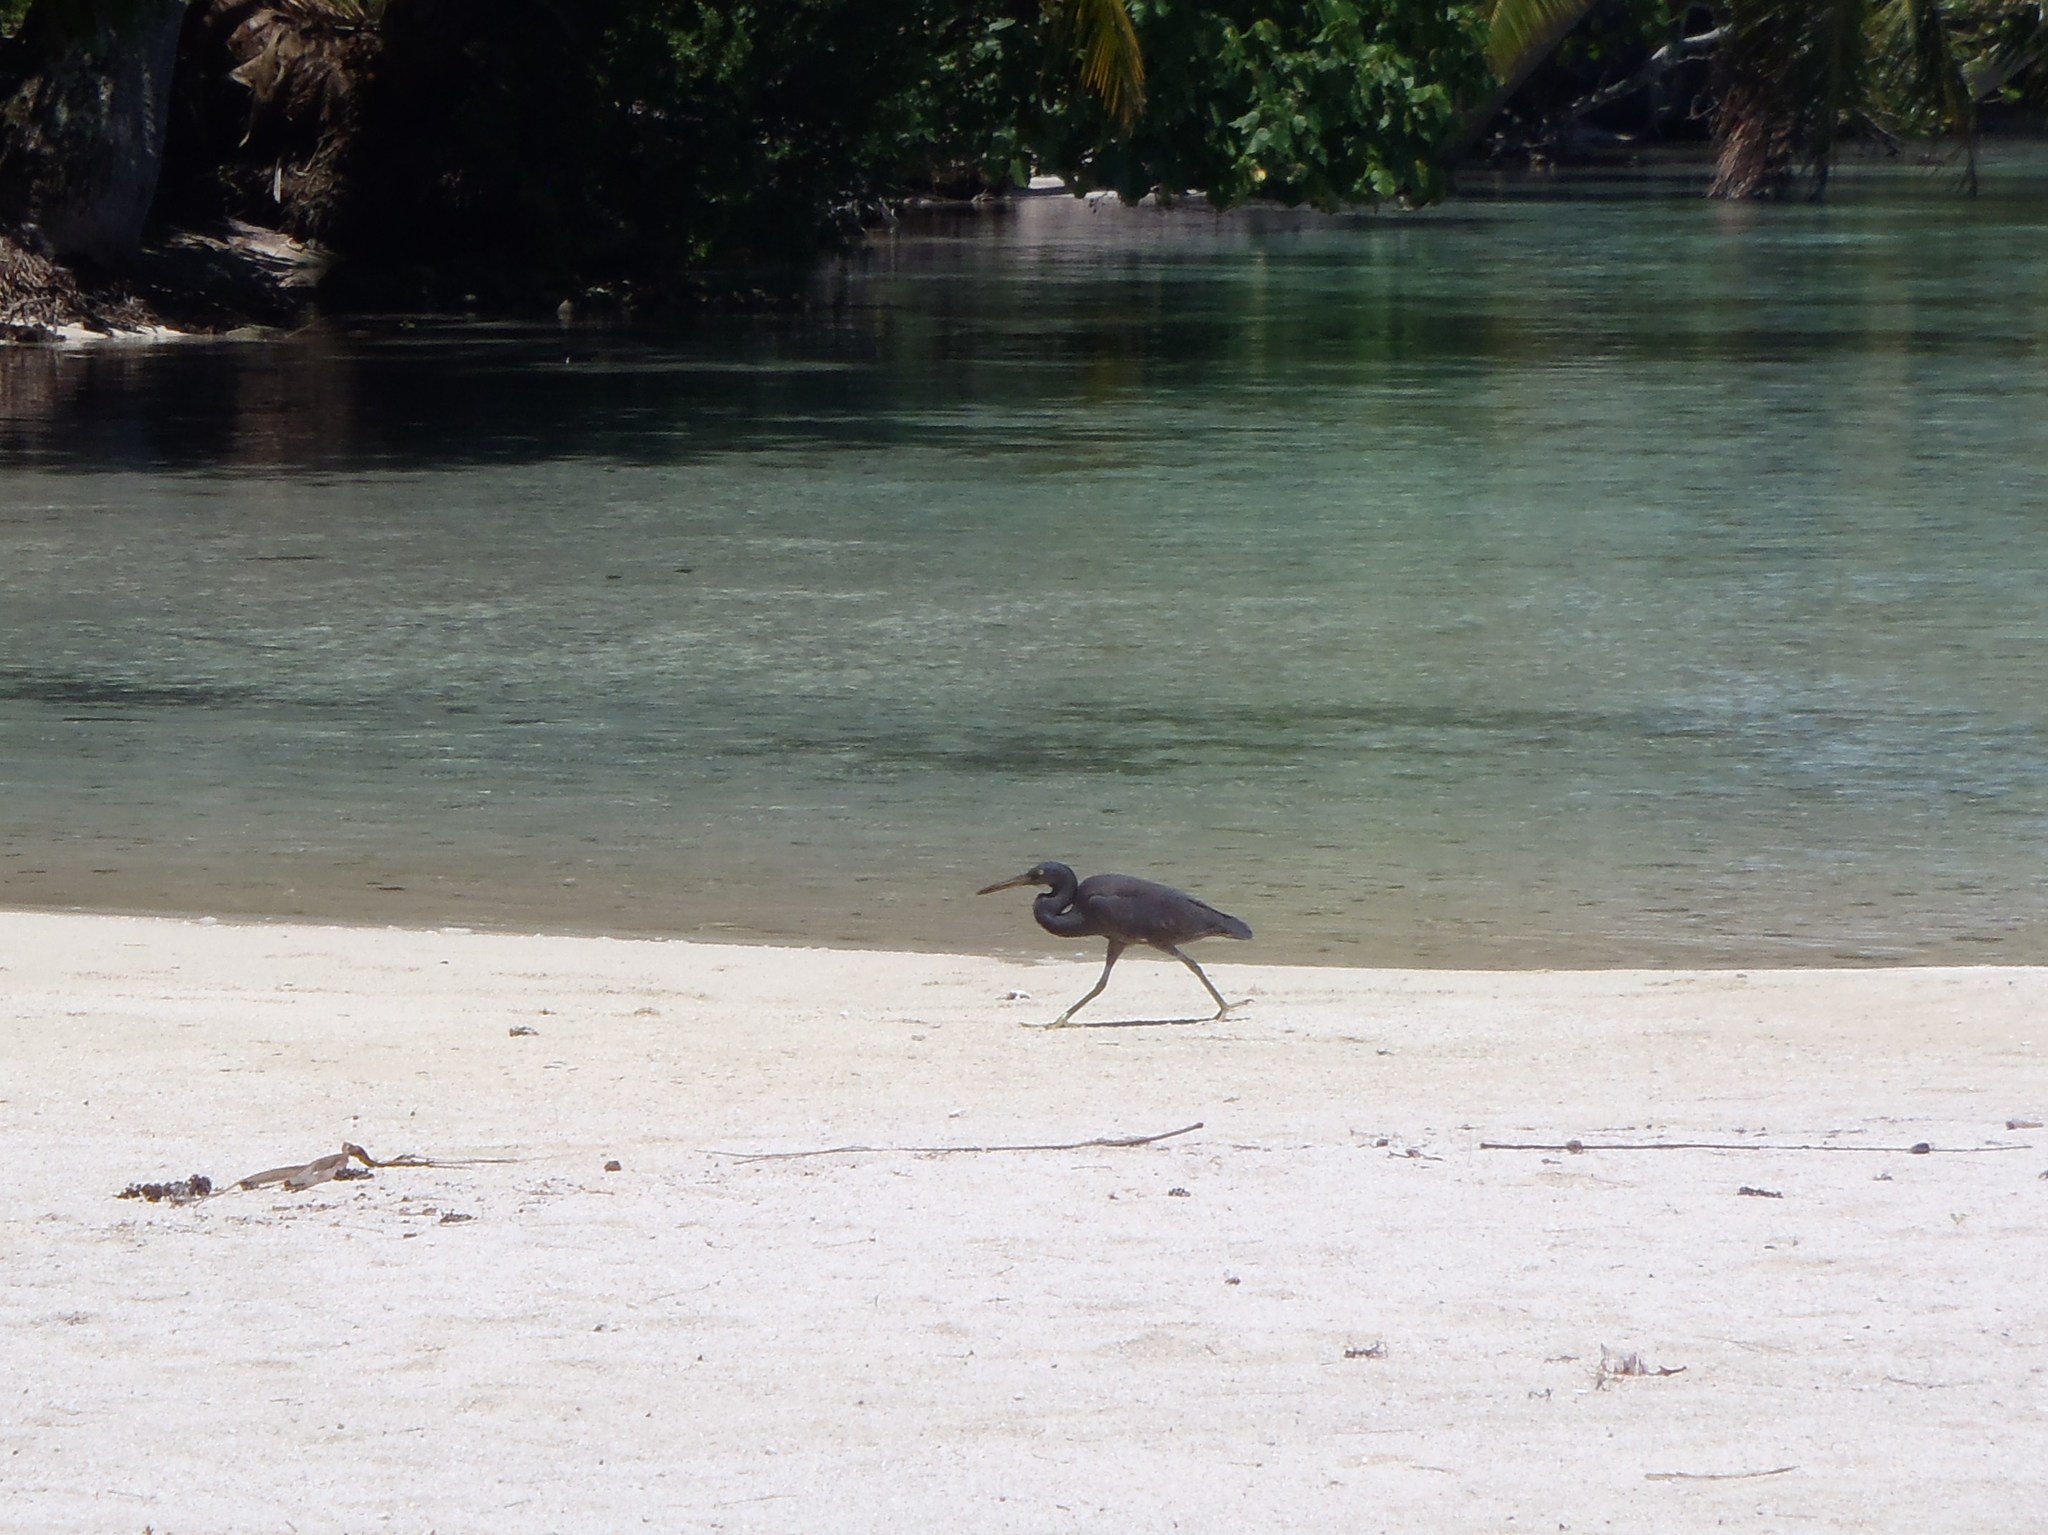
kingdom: Animalia
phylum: Chordata
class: Aves
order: Pelecaniformes
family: Ardeidae
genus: Egretta
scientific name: Egretta sacra
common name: Pacific reef heron
